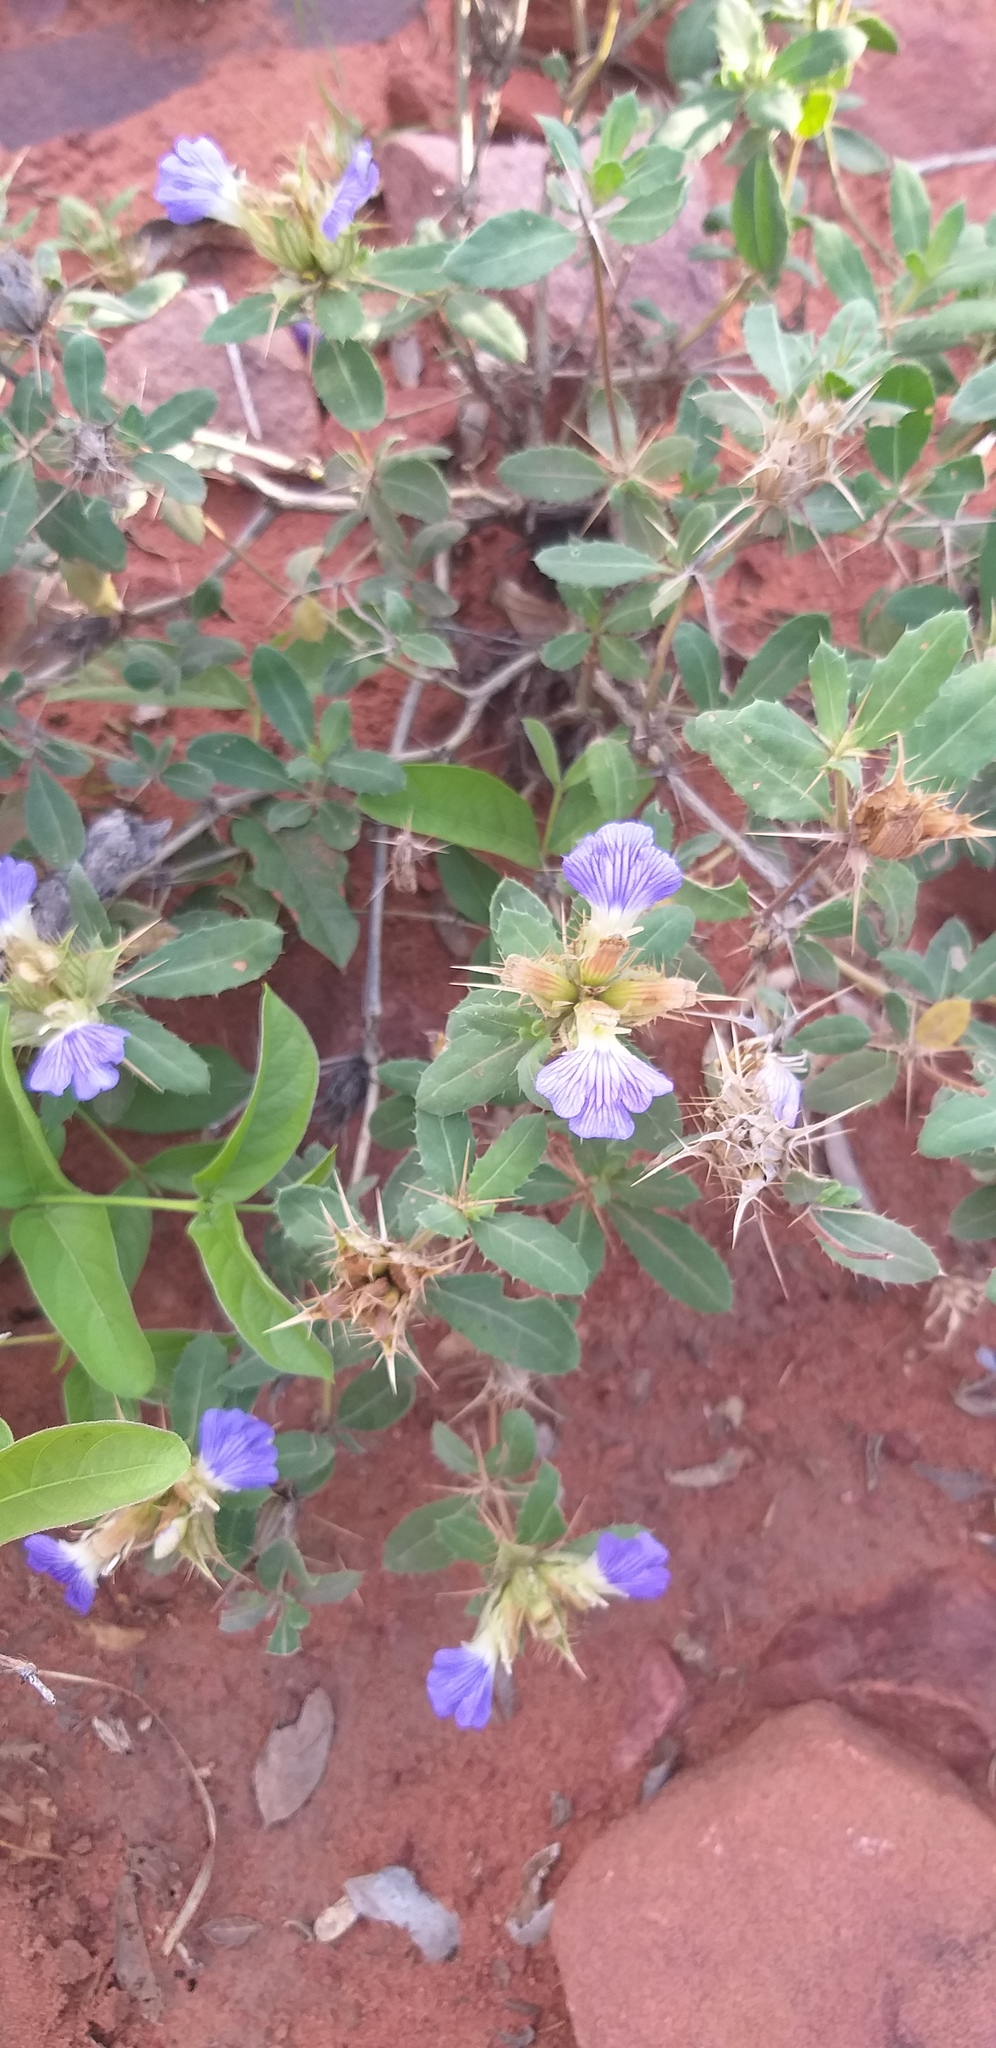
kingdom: Plantae
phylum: Tracheophyta
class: Magnoliopsida
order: Lamiales
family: Acanthaceae
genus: Blepharis
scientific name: Blepharis diversispina
